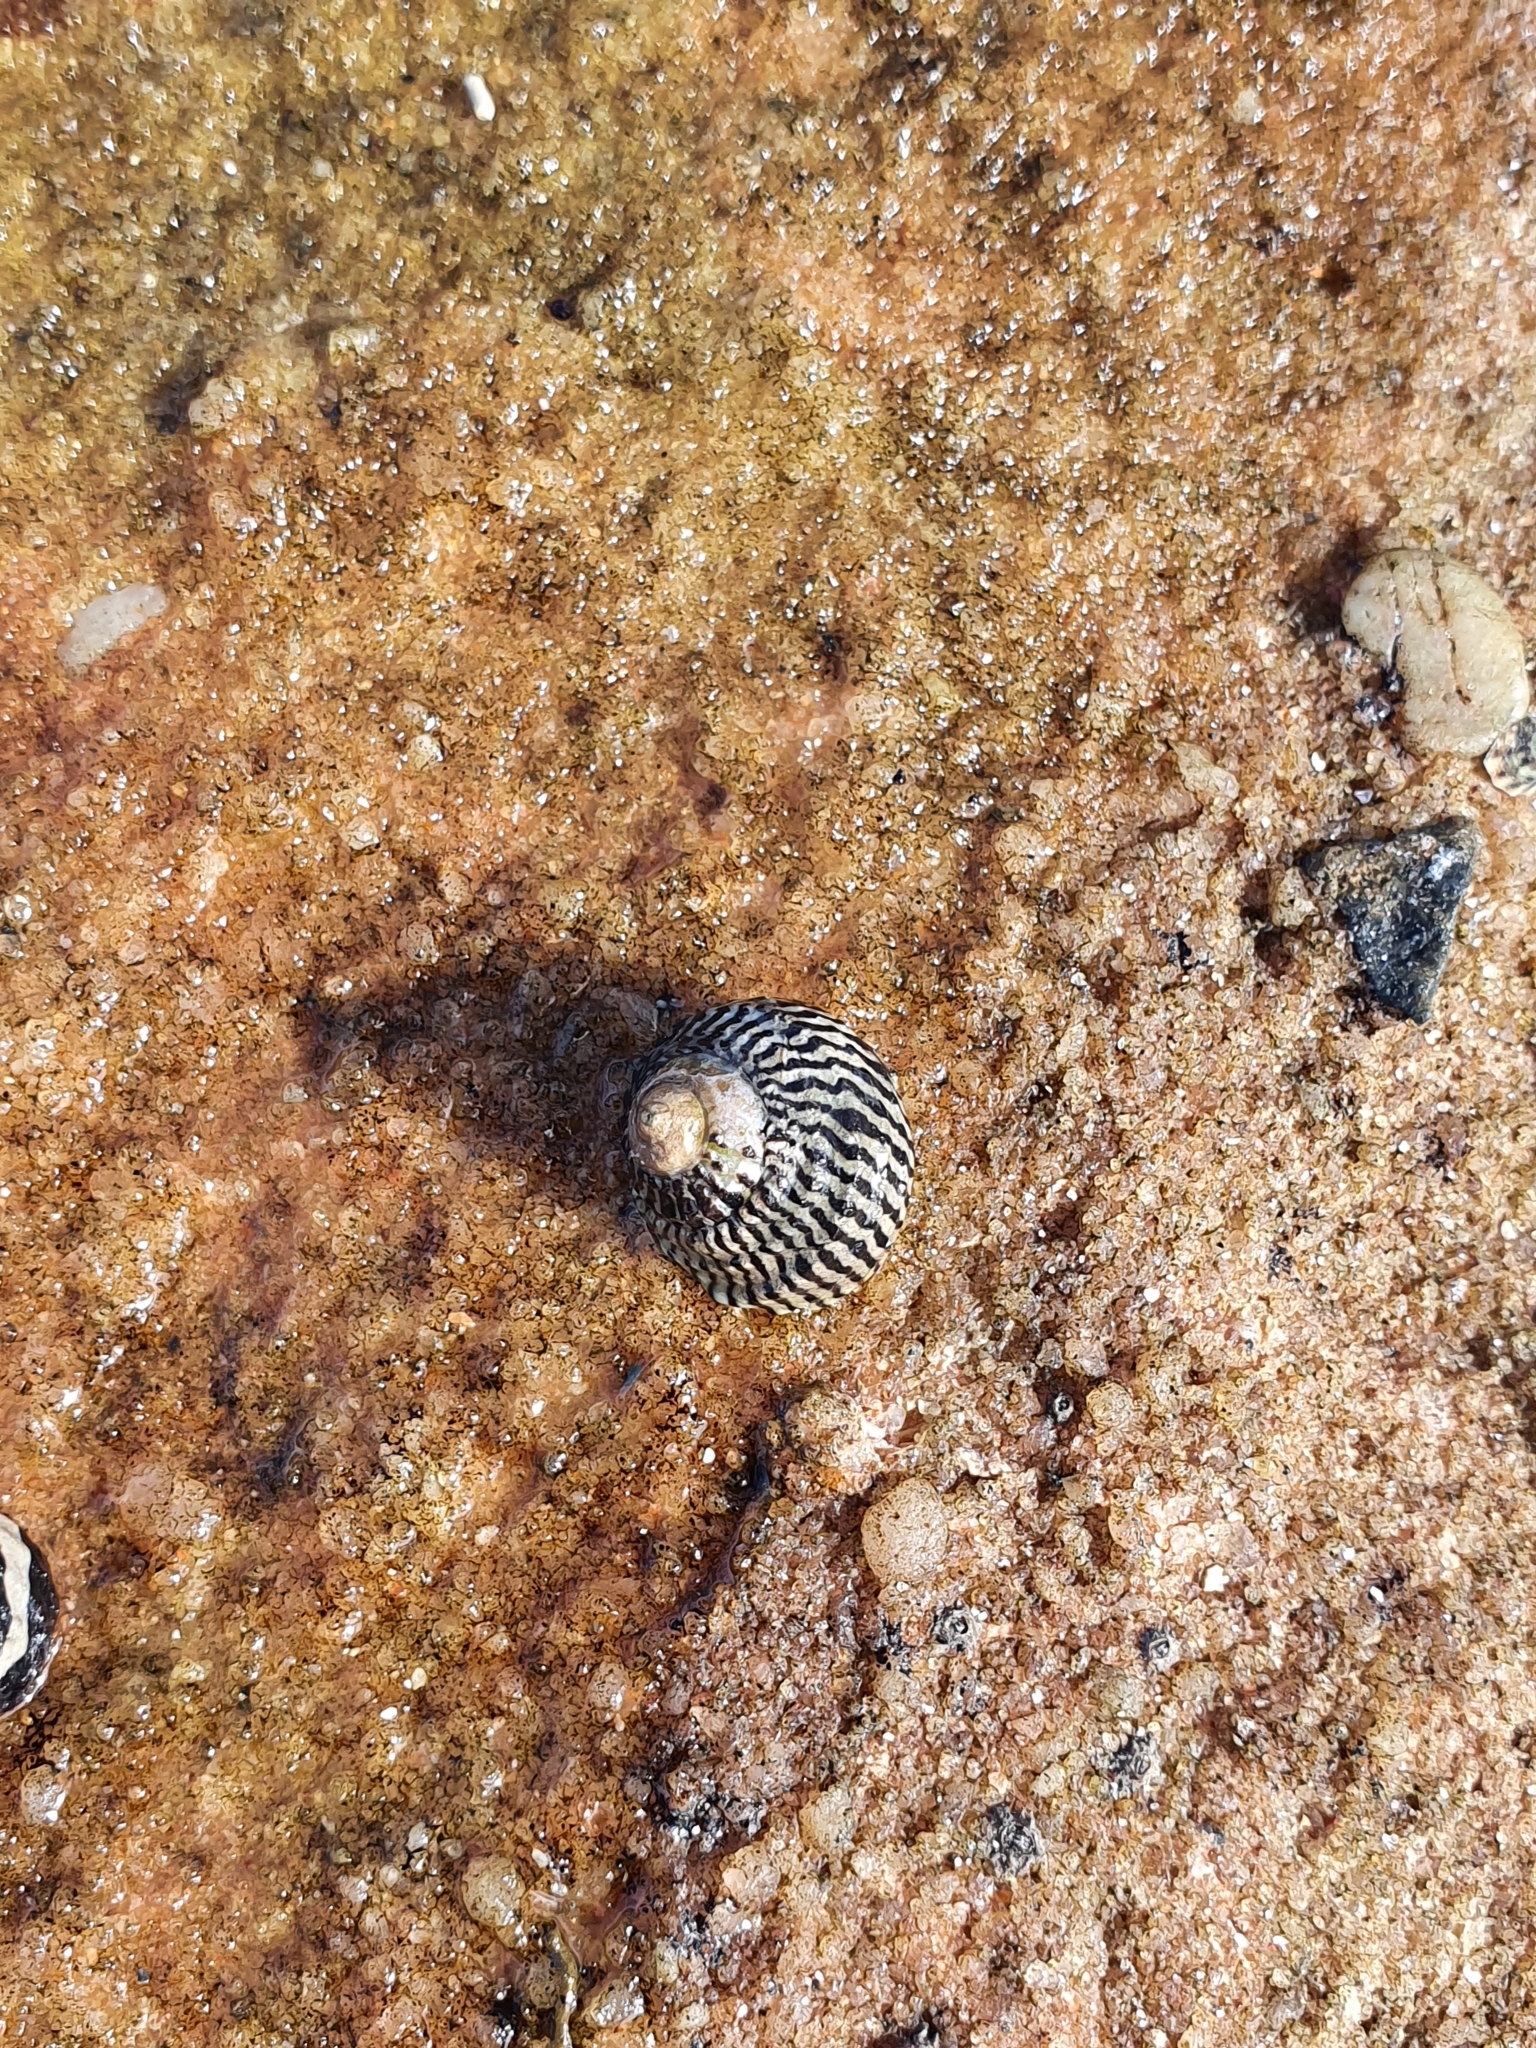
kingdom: Animalia
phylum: Mollusca
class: Gastropoda
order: Trochida
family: Trochidae
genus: Austrocochlea
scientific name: Austrocochlea porcata
